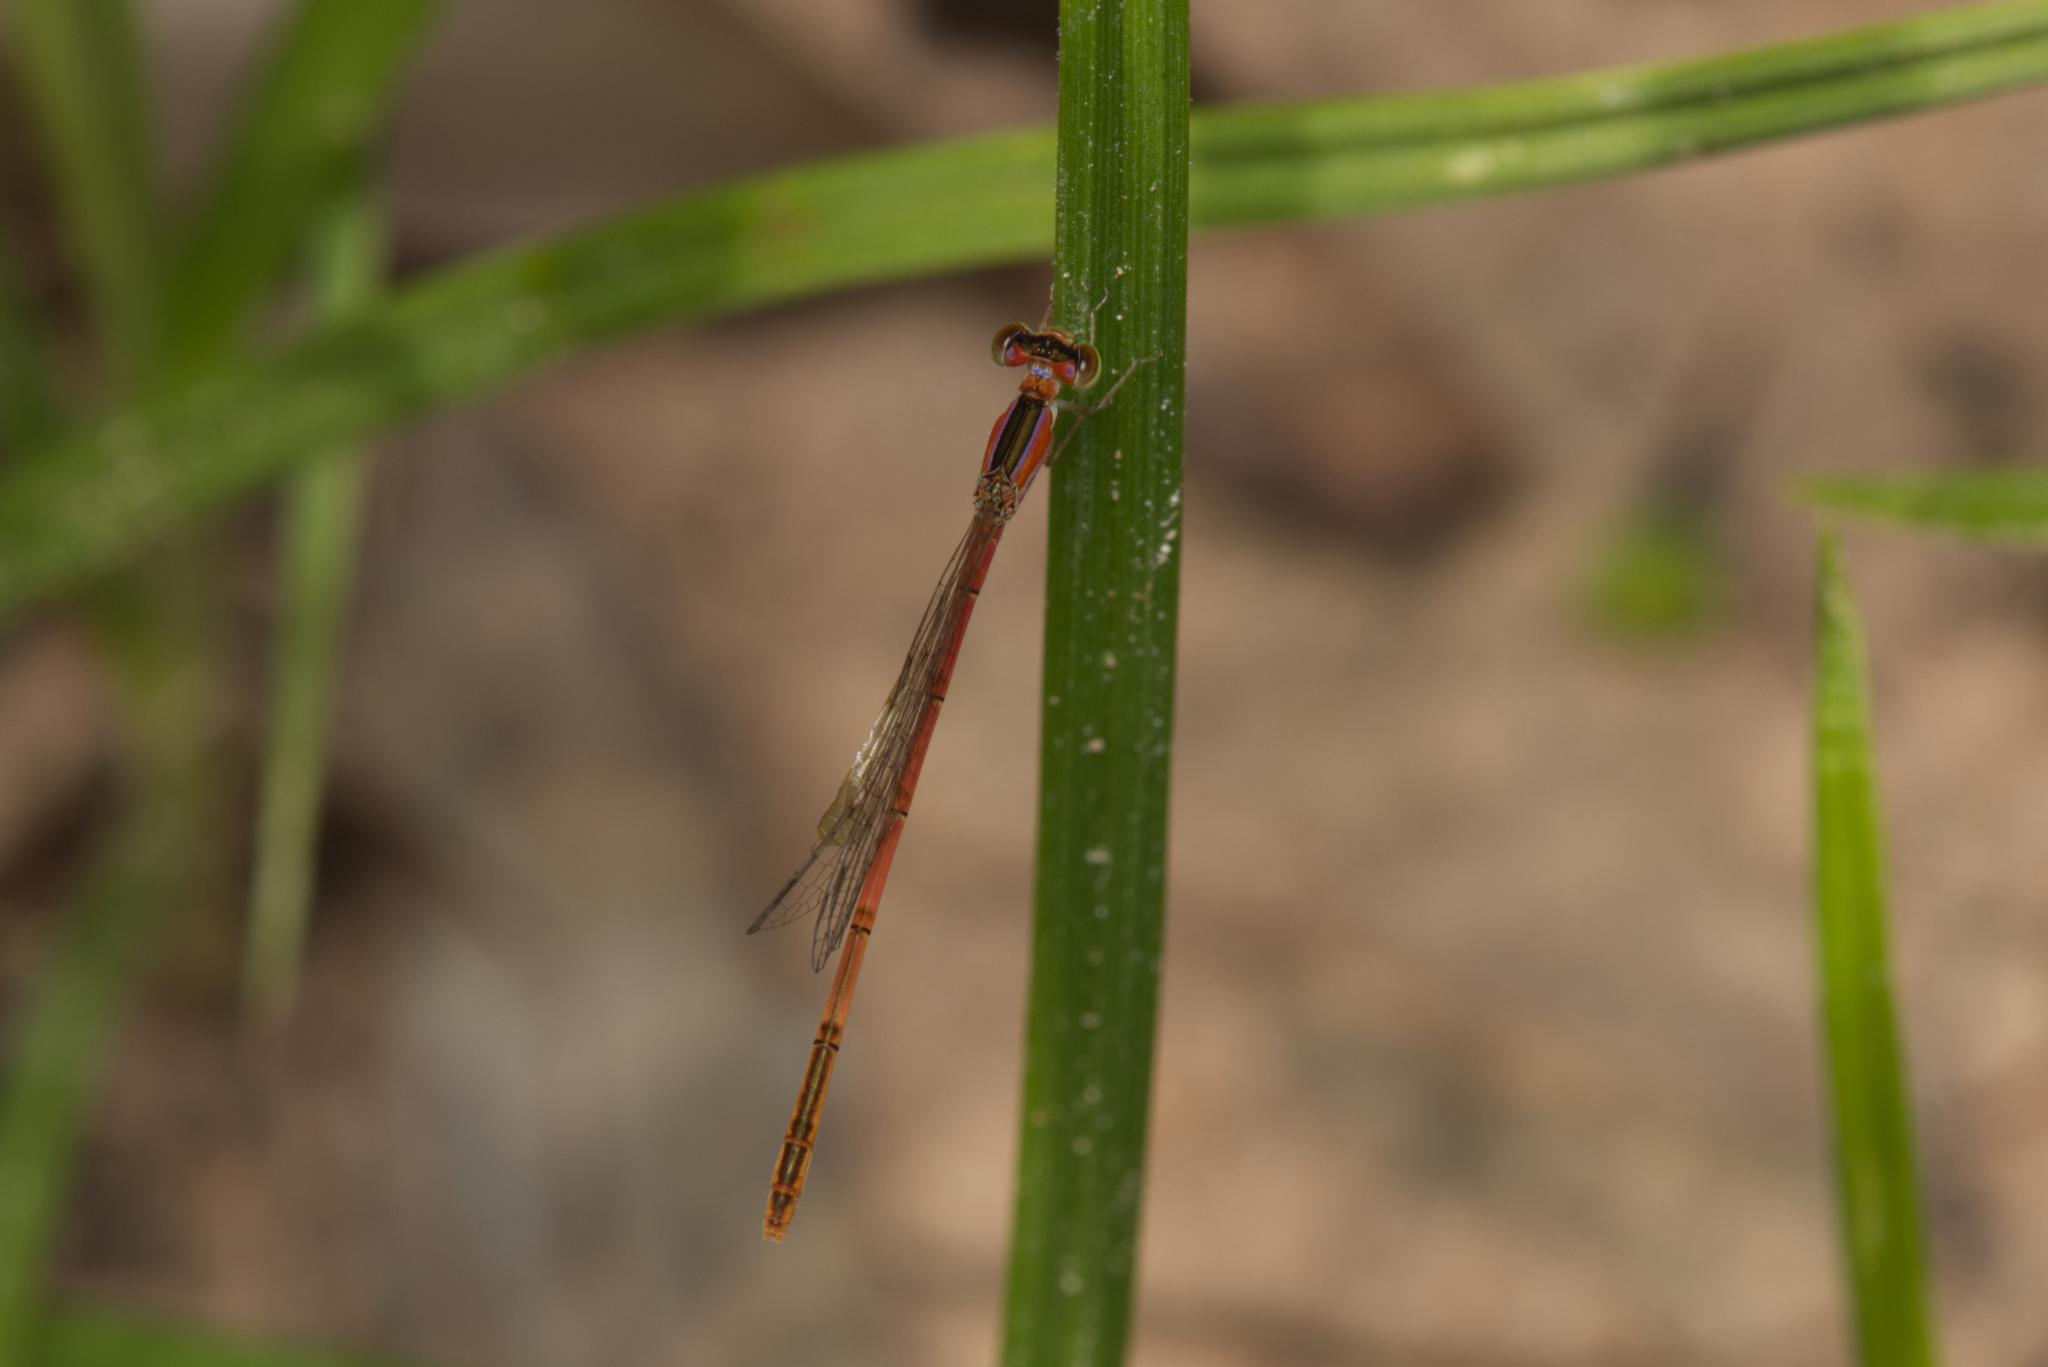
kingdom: Animalia
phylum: Arthropoda
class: Insecta
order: Odonata
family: Coenagrionidae
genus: Agriocnemis
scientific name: Agriocnemis pygmaea
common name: Pygmy wisp
